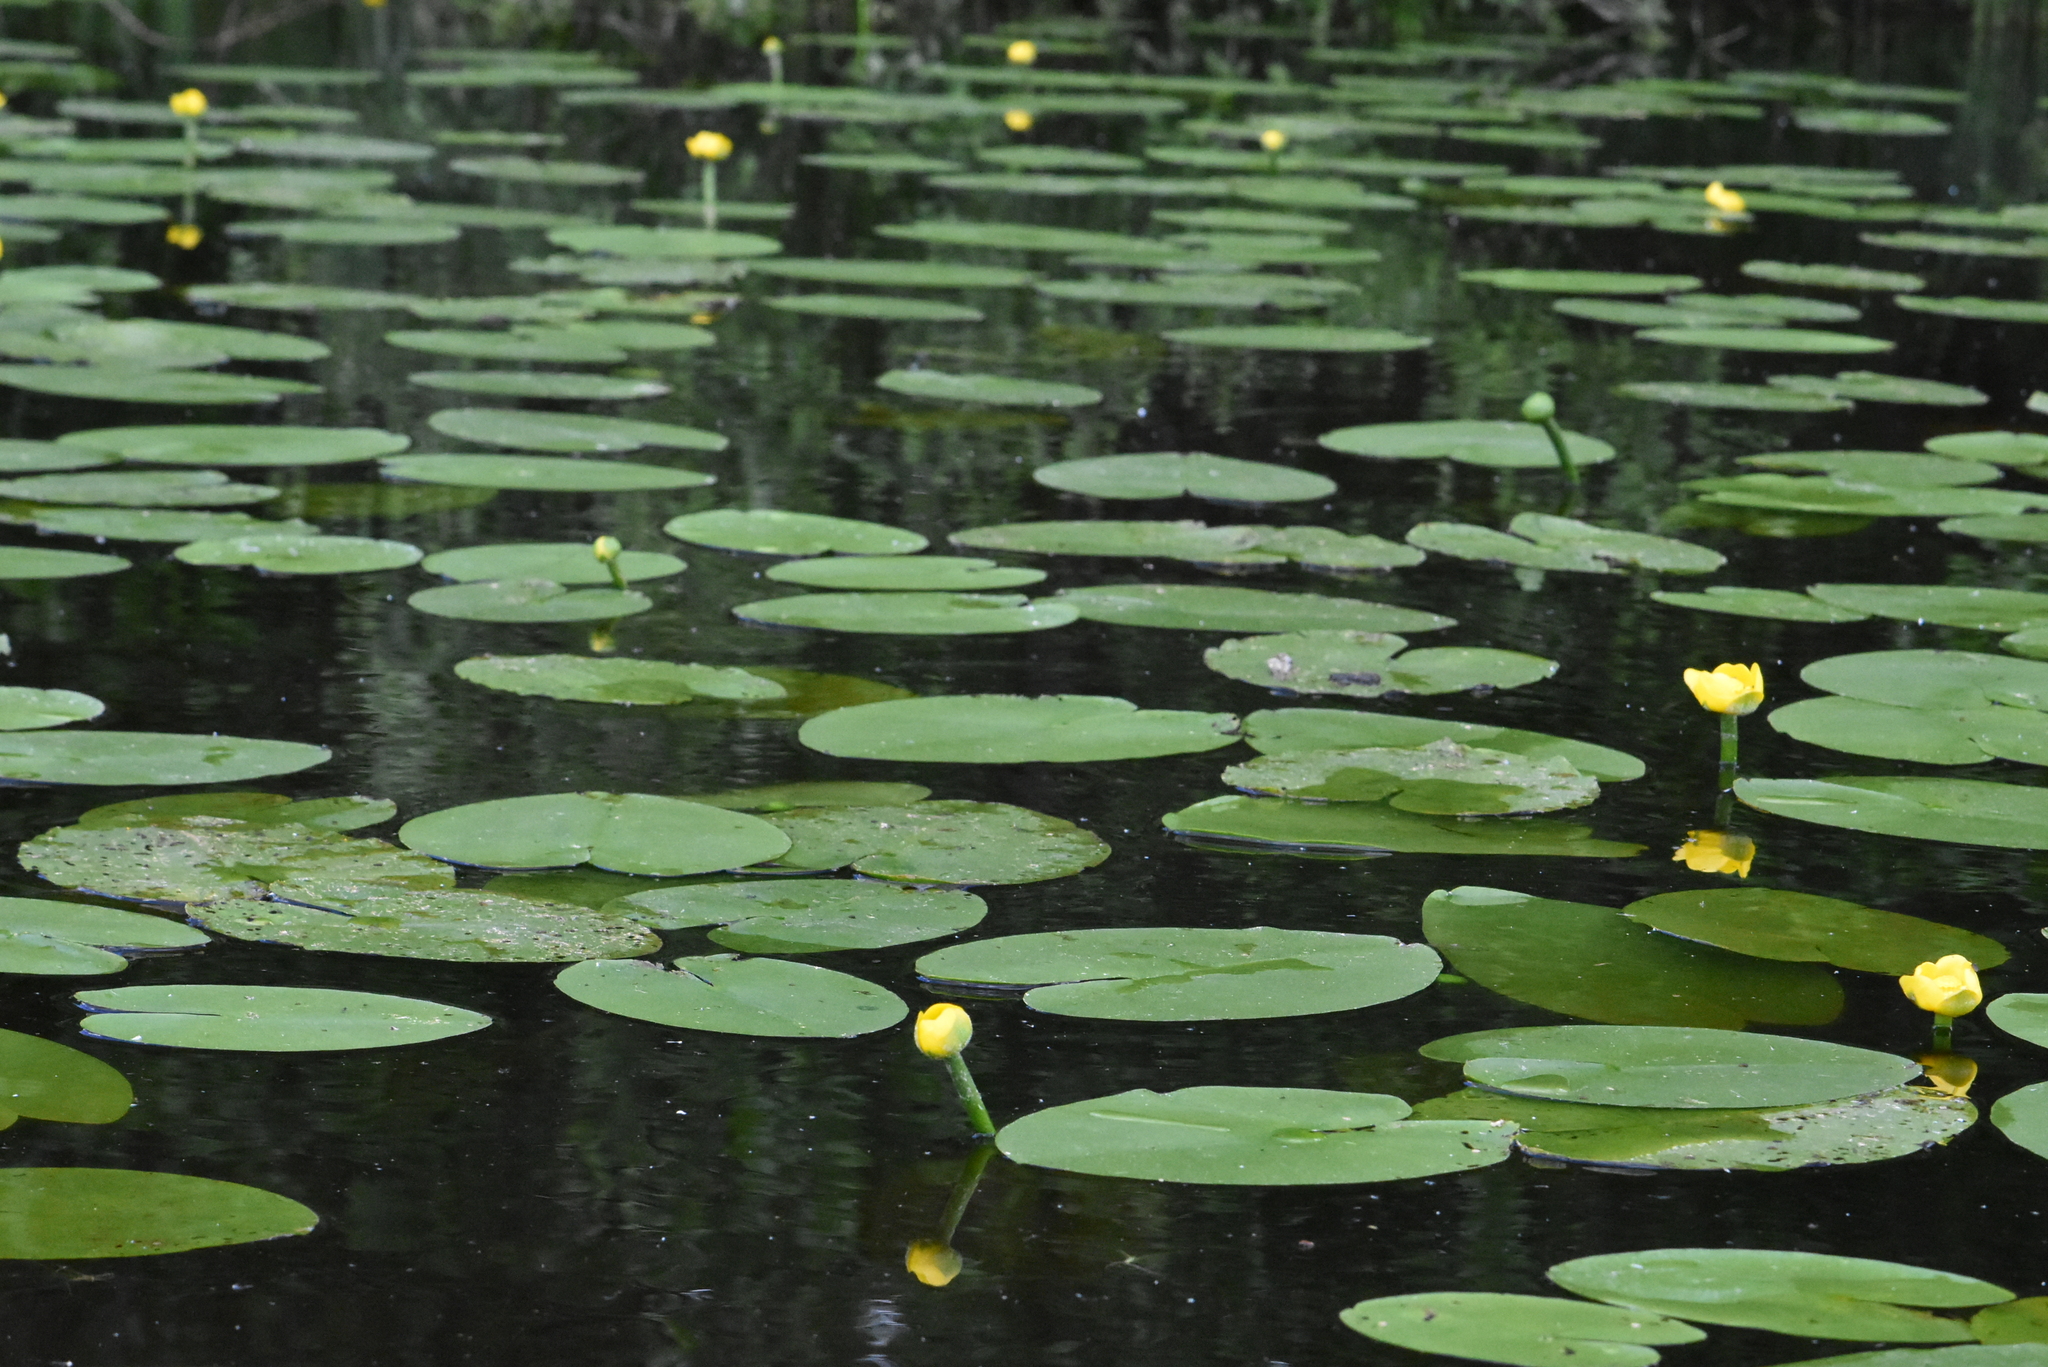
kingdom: Plantae
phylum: Tracheophyta
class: Magnoliopsida
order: Nymphaeales
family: Nymphaeaceae
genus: Nuphar
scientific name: Nuphar lutea
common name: Yellow water-lily
